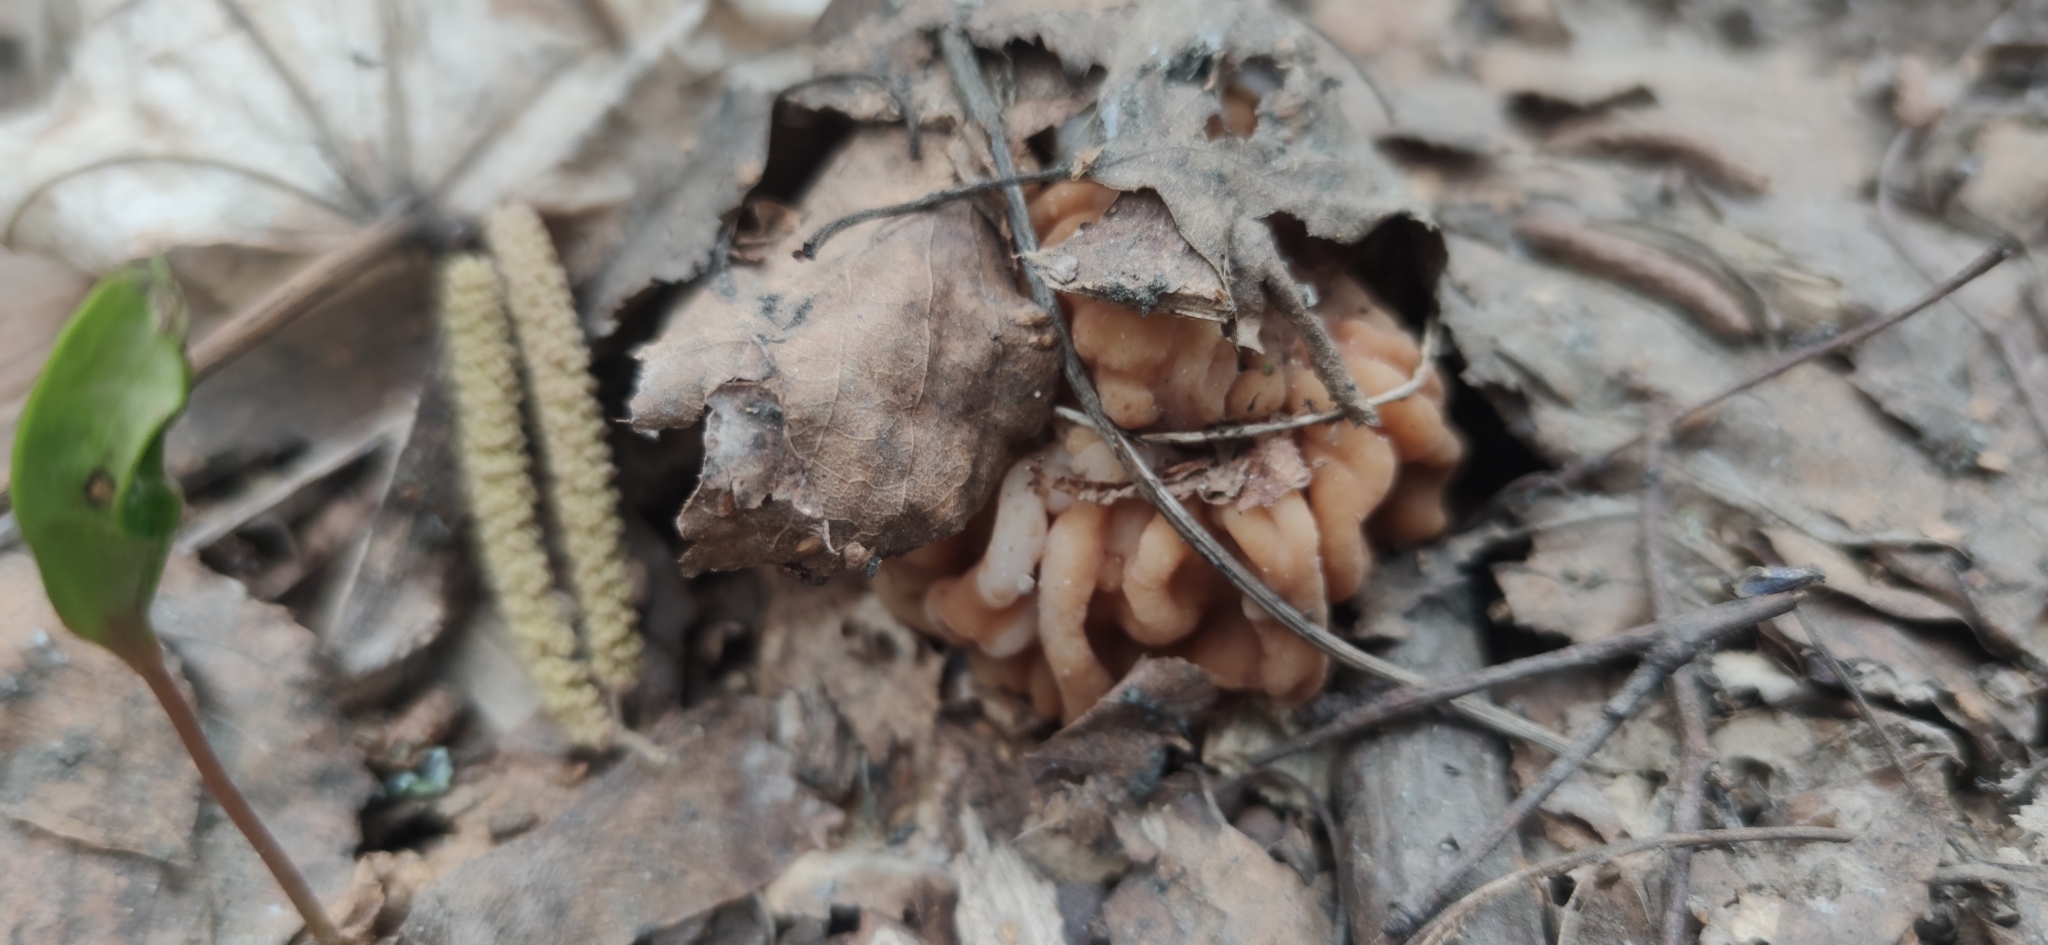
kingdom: Fungi
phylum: Ascomycota
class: Pezizomycetes
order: Pezizales
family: Discinaceae
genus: Gyromitra
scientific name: Gyromitra gigas
